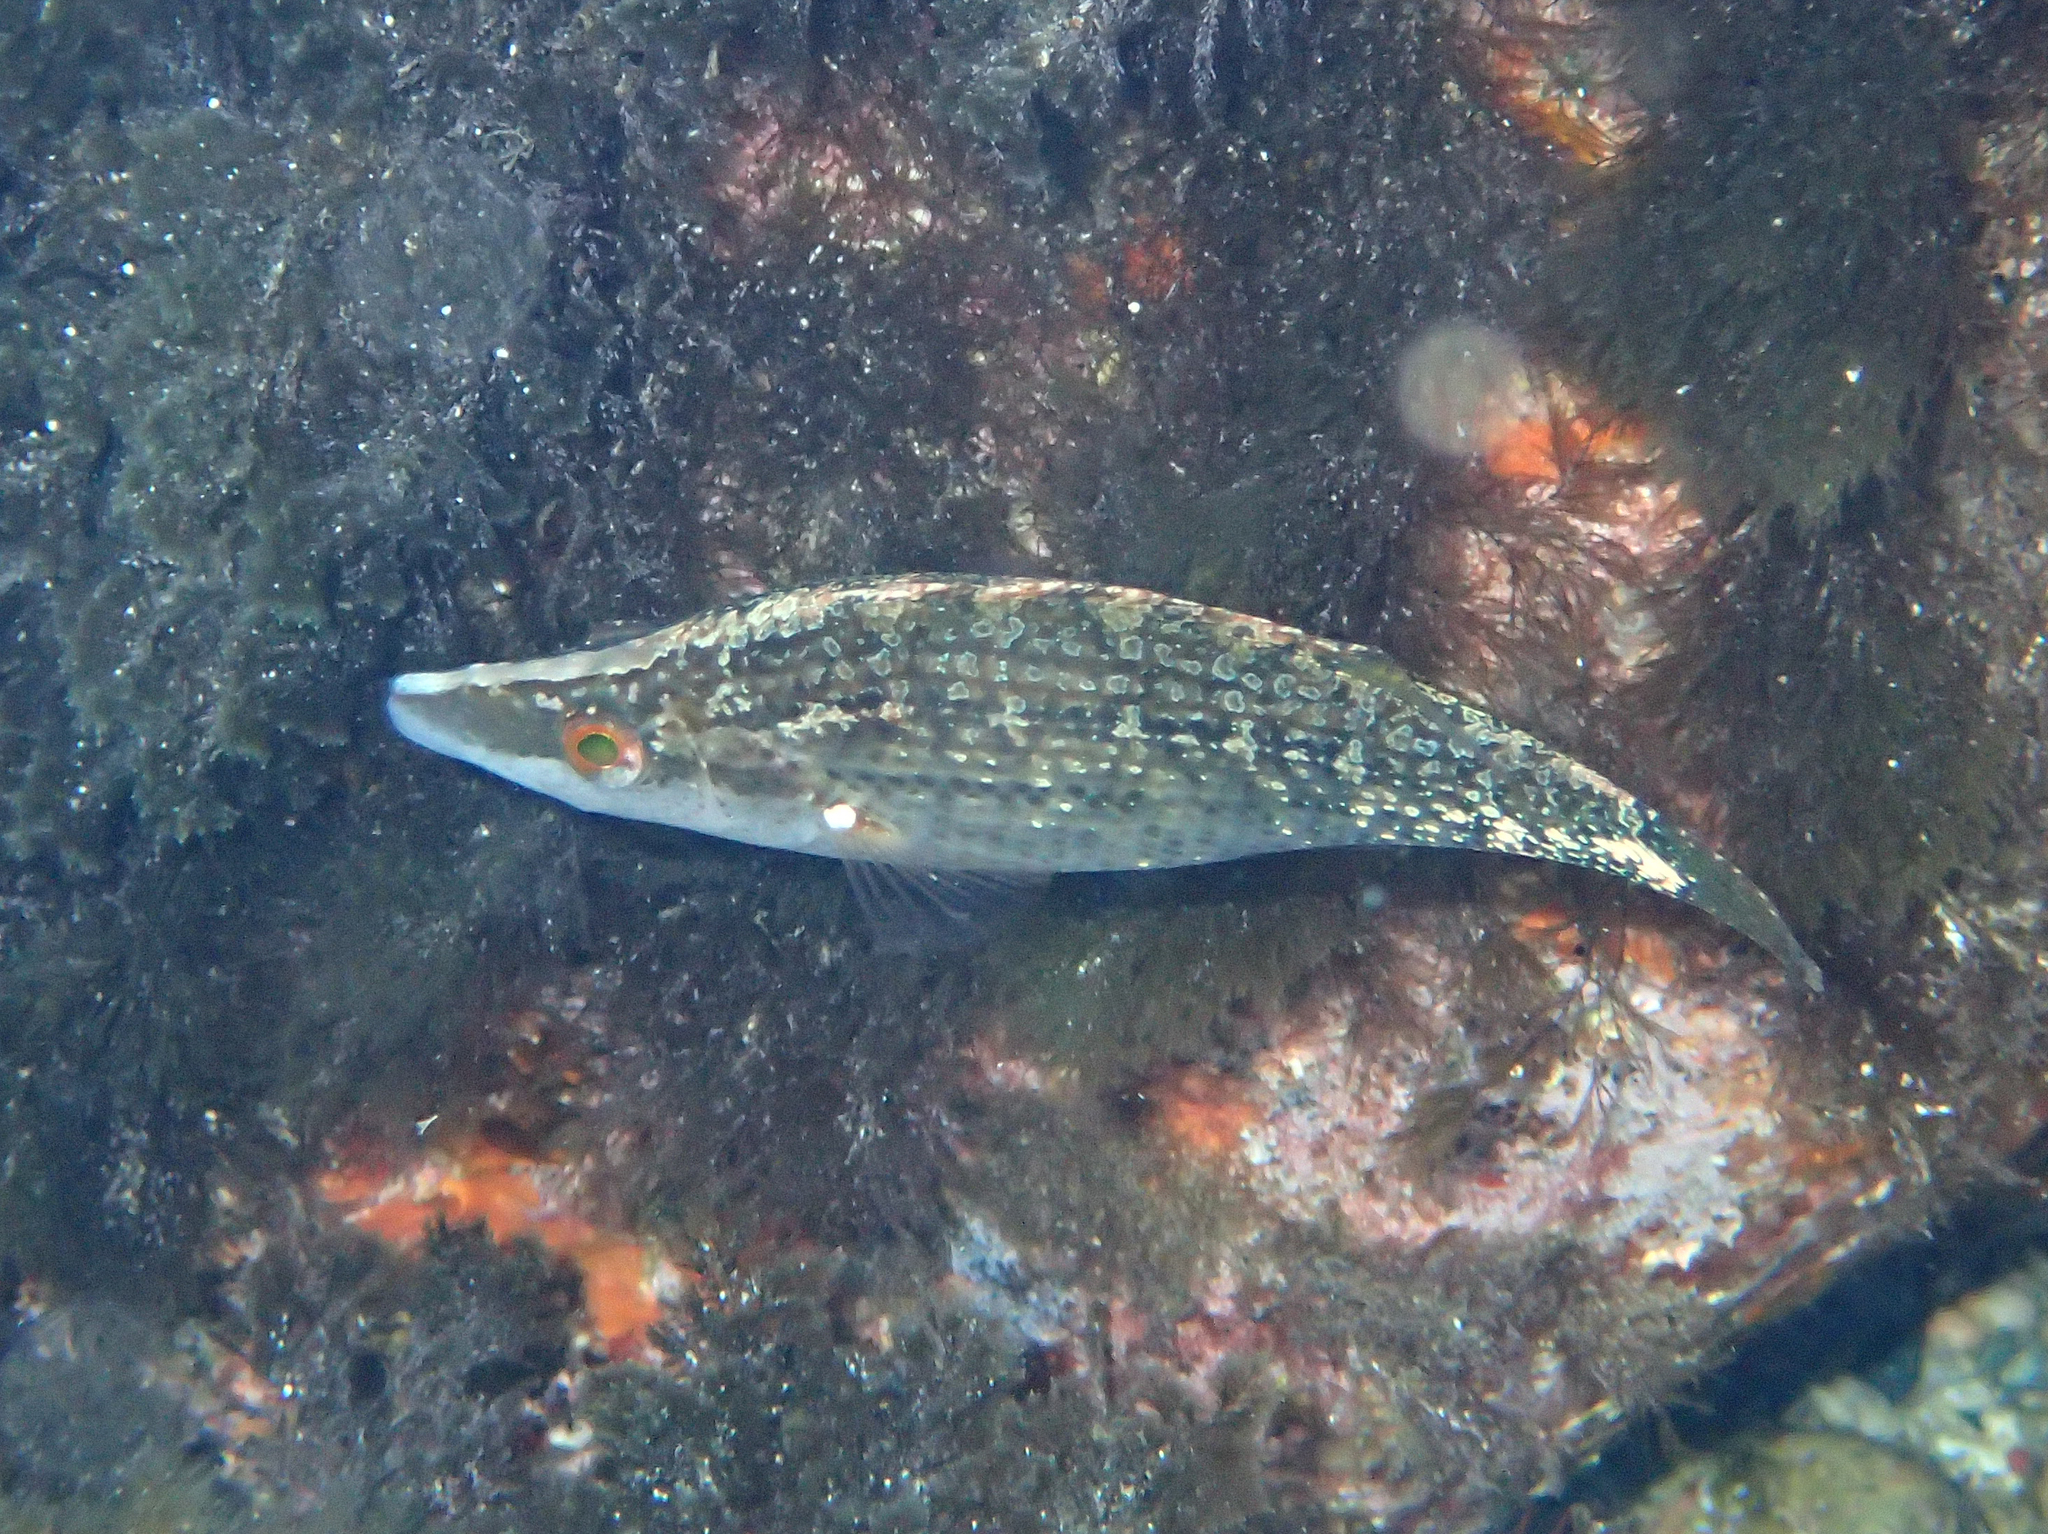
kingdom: Animalia
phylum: Chordata
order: Perciformes
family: Labridae
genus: Symphodus
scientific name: Symphodus rostratus
